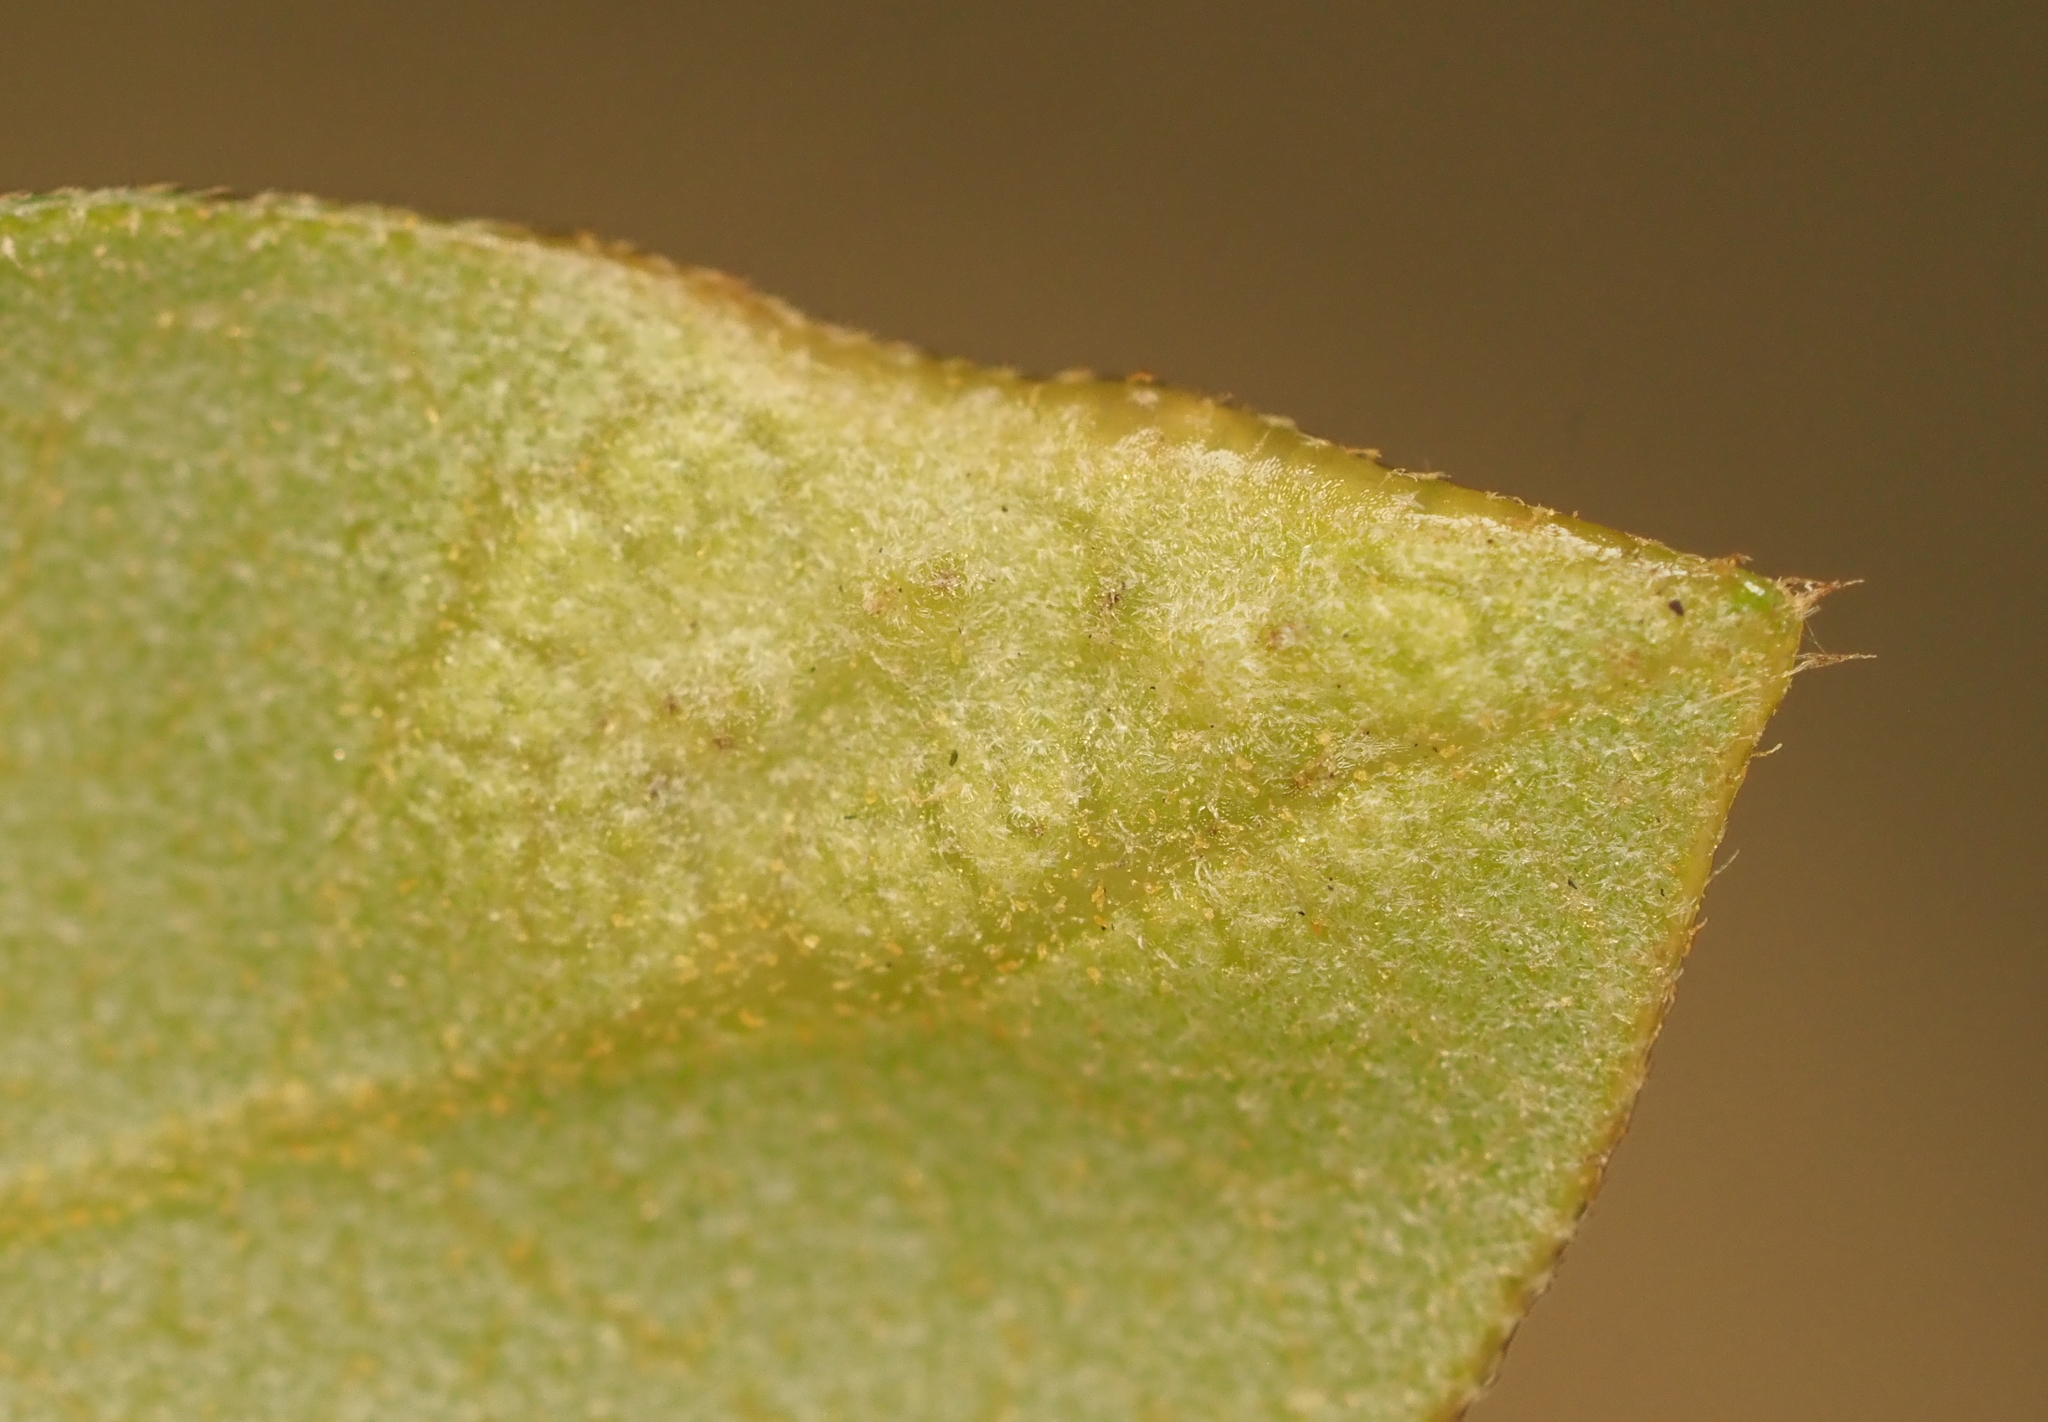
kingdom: Animalia
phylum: Arthropoda
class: Insecta
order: Hymenoptera
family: Cynipidae
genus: Neuroterus
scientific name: Neuroterus bussae
